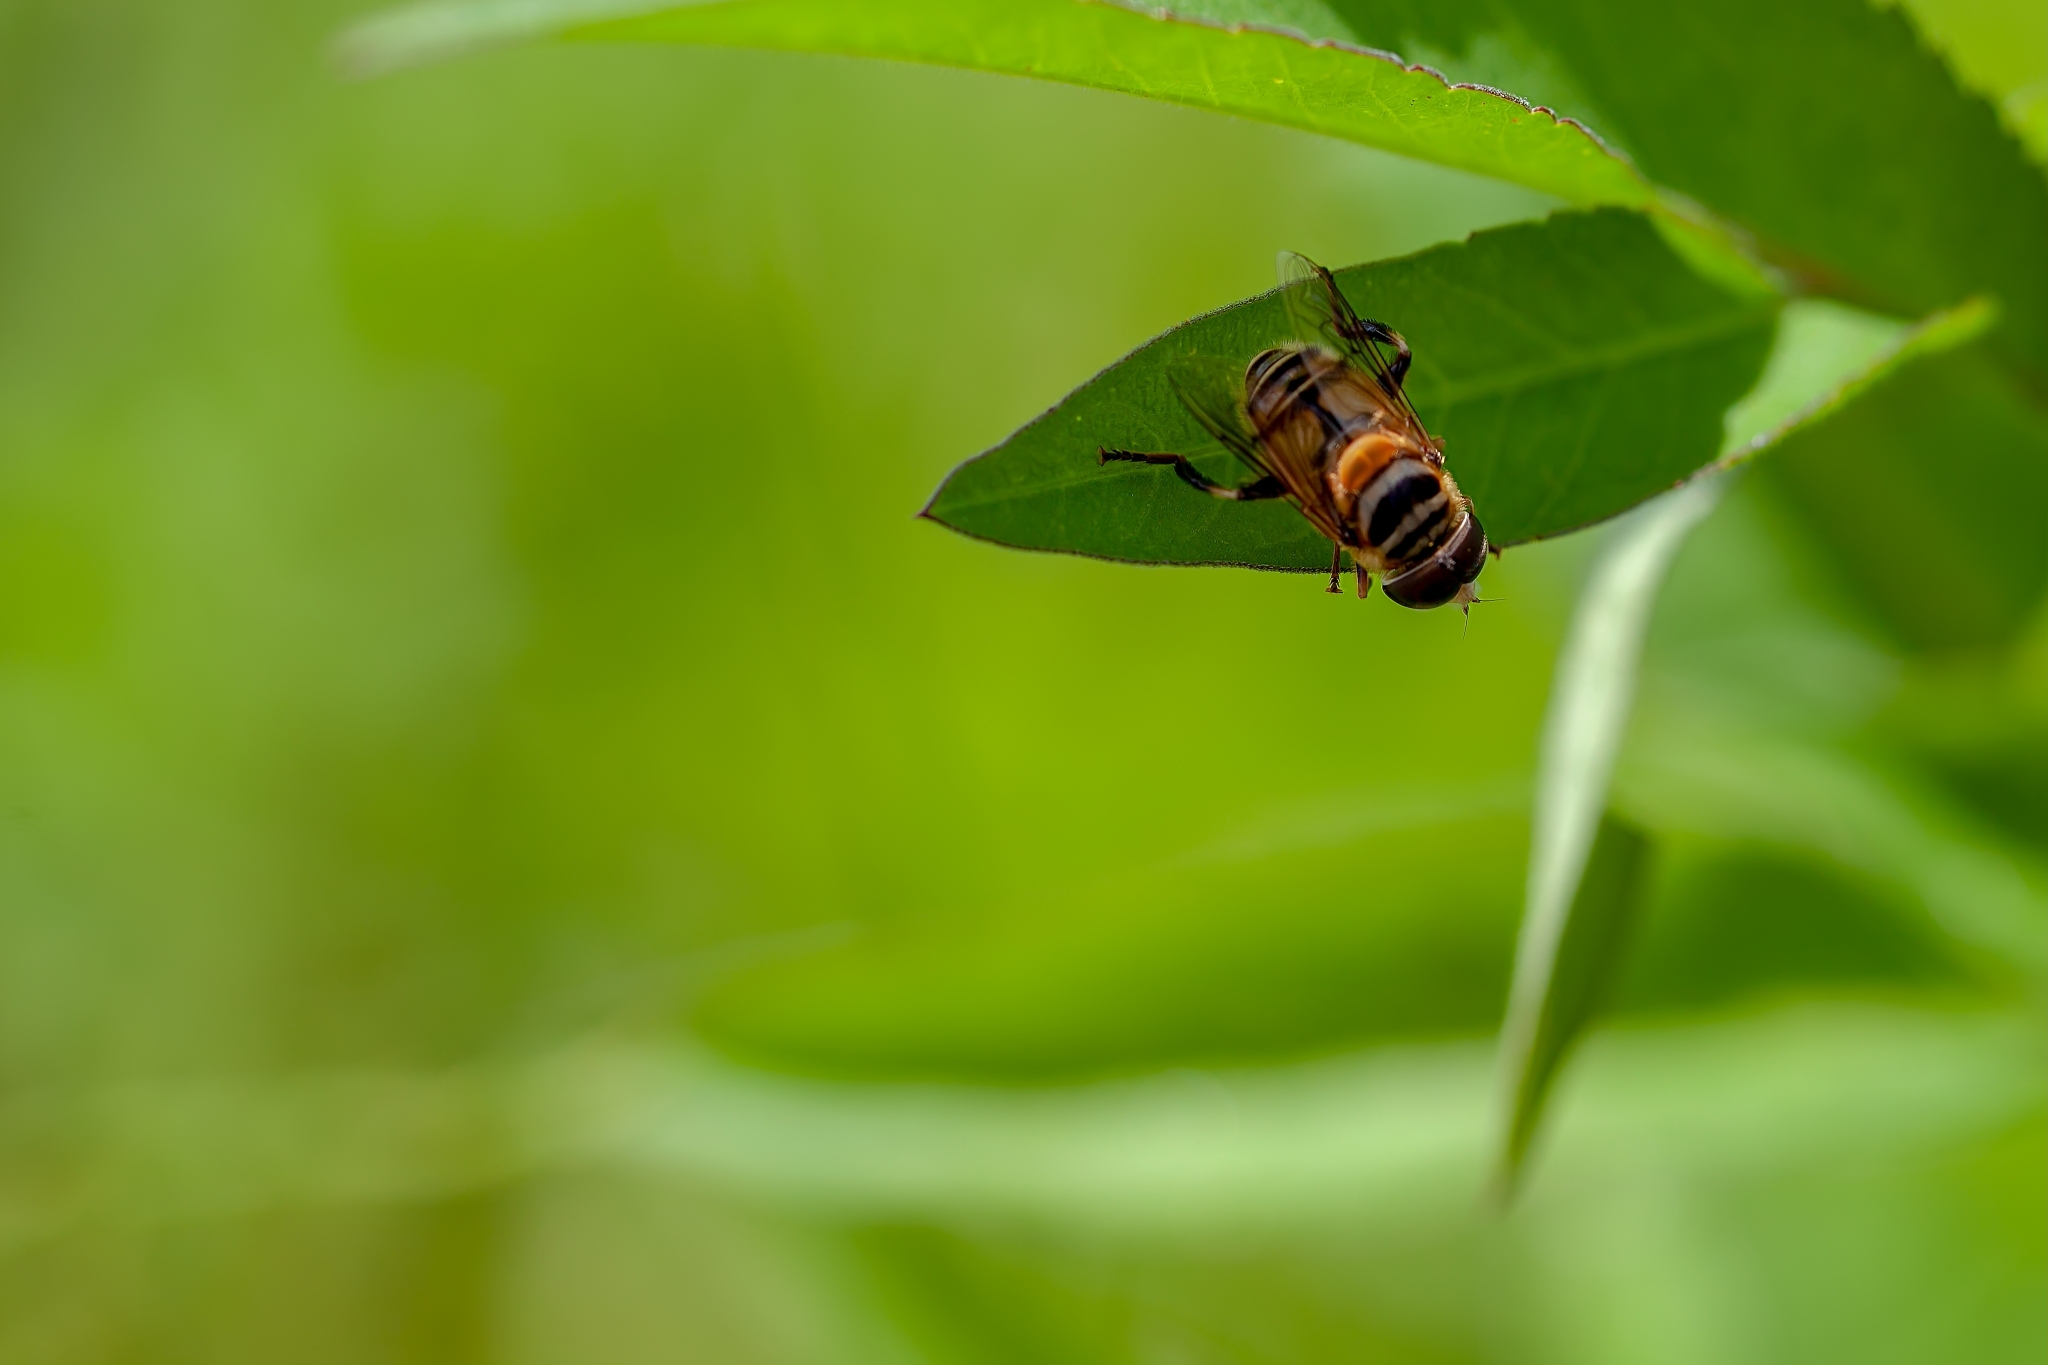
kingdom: Animalia
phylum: Arthropoda
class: Insecta
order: Diptera
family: Syrphidae
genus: Palpada
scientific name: Palpada vinetorum
